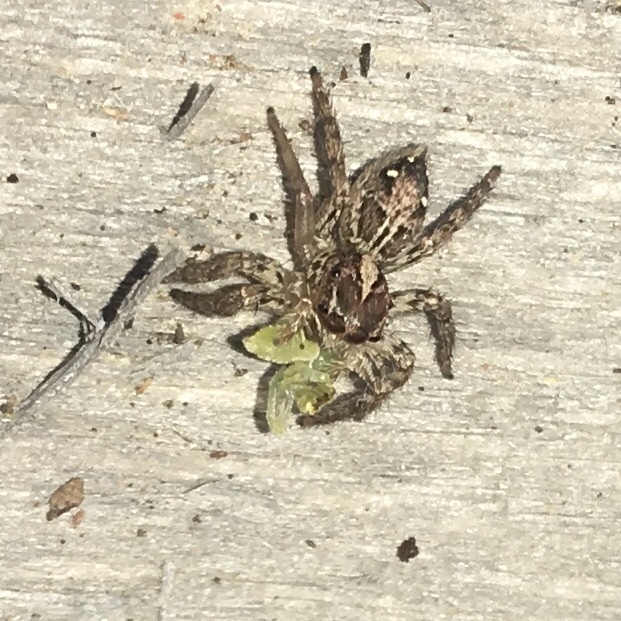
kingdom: Animalia
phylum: Arthropoda
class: Arachnida
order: Araneae
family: Salticidae
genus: Plexippus
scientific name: Plexippus paykulli
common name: Pantropical jumper
